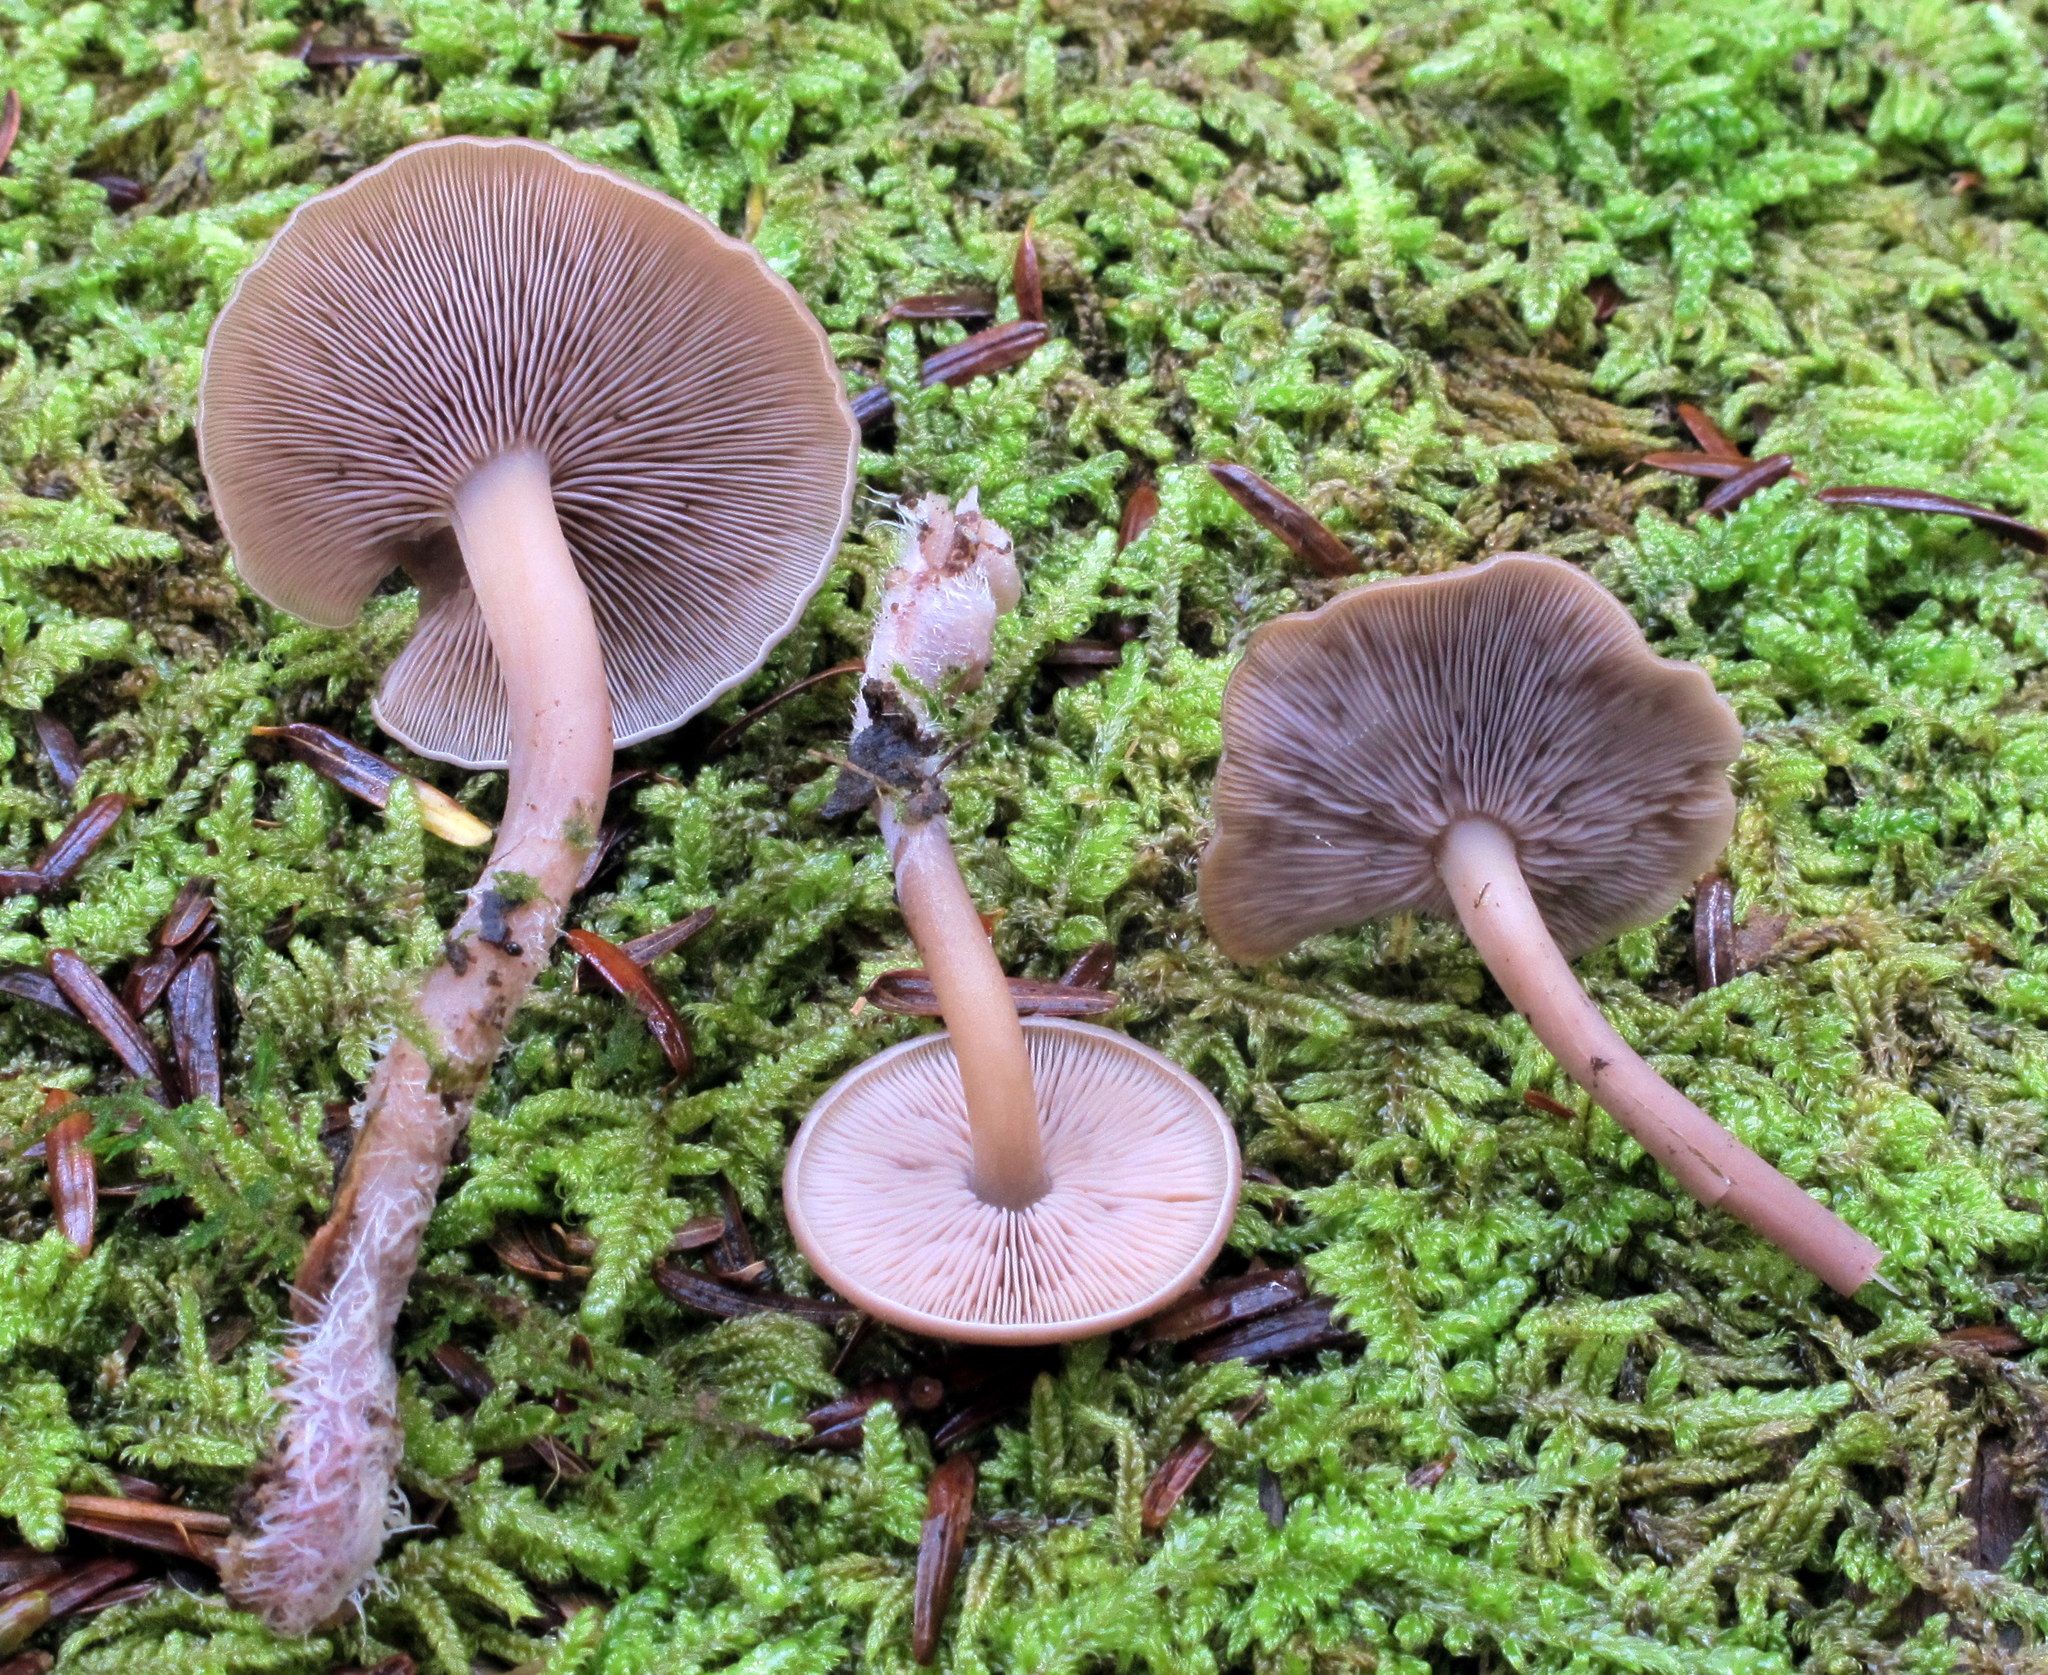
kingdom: Fungi
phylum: Basidiomycota
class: Agaricomycetes
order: Agaricales
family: Marasmiaceae
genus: Baeospora
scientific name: Baeospora myriadophylla
